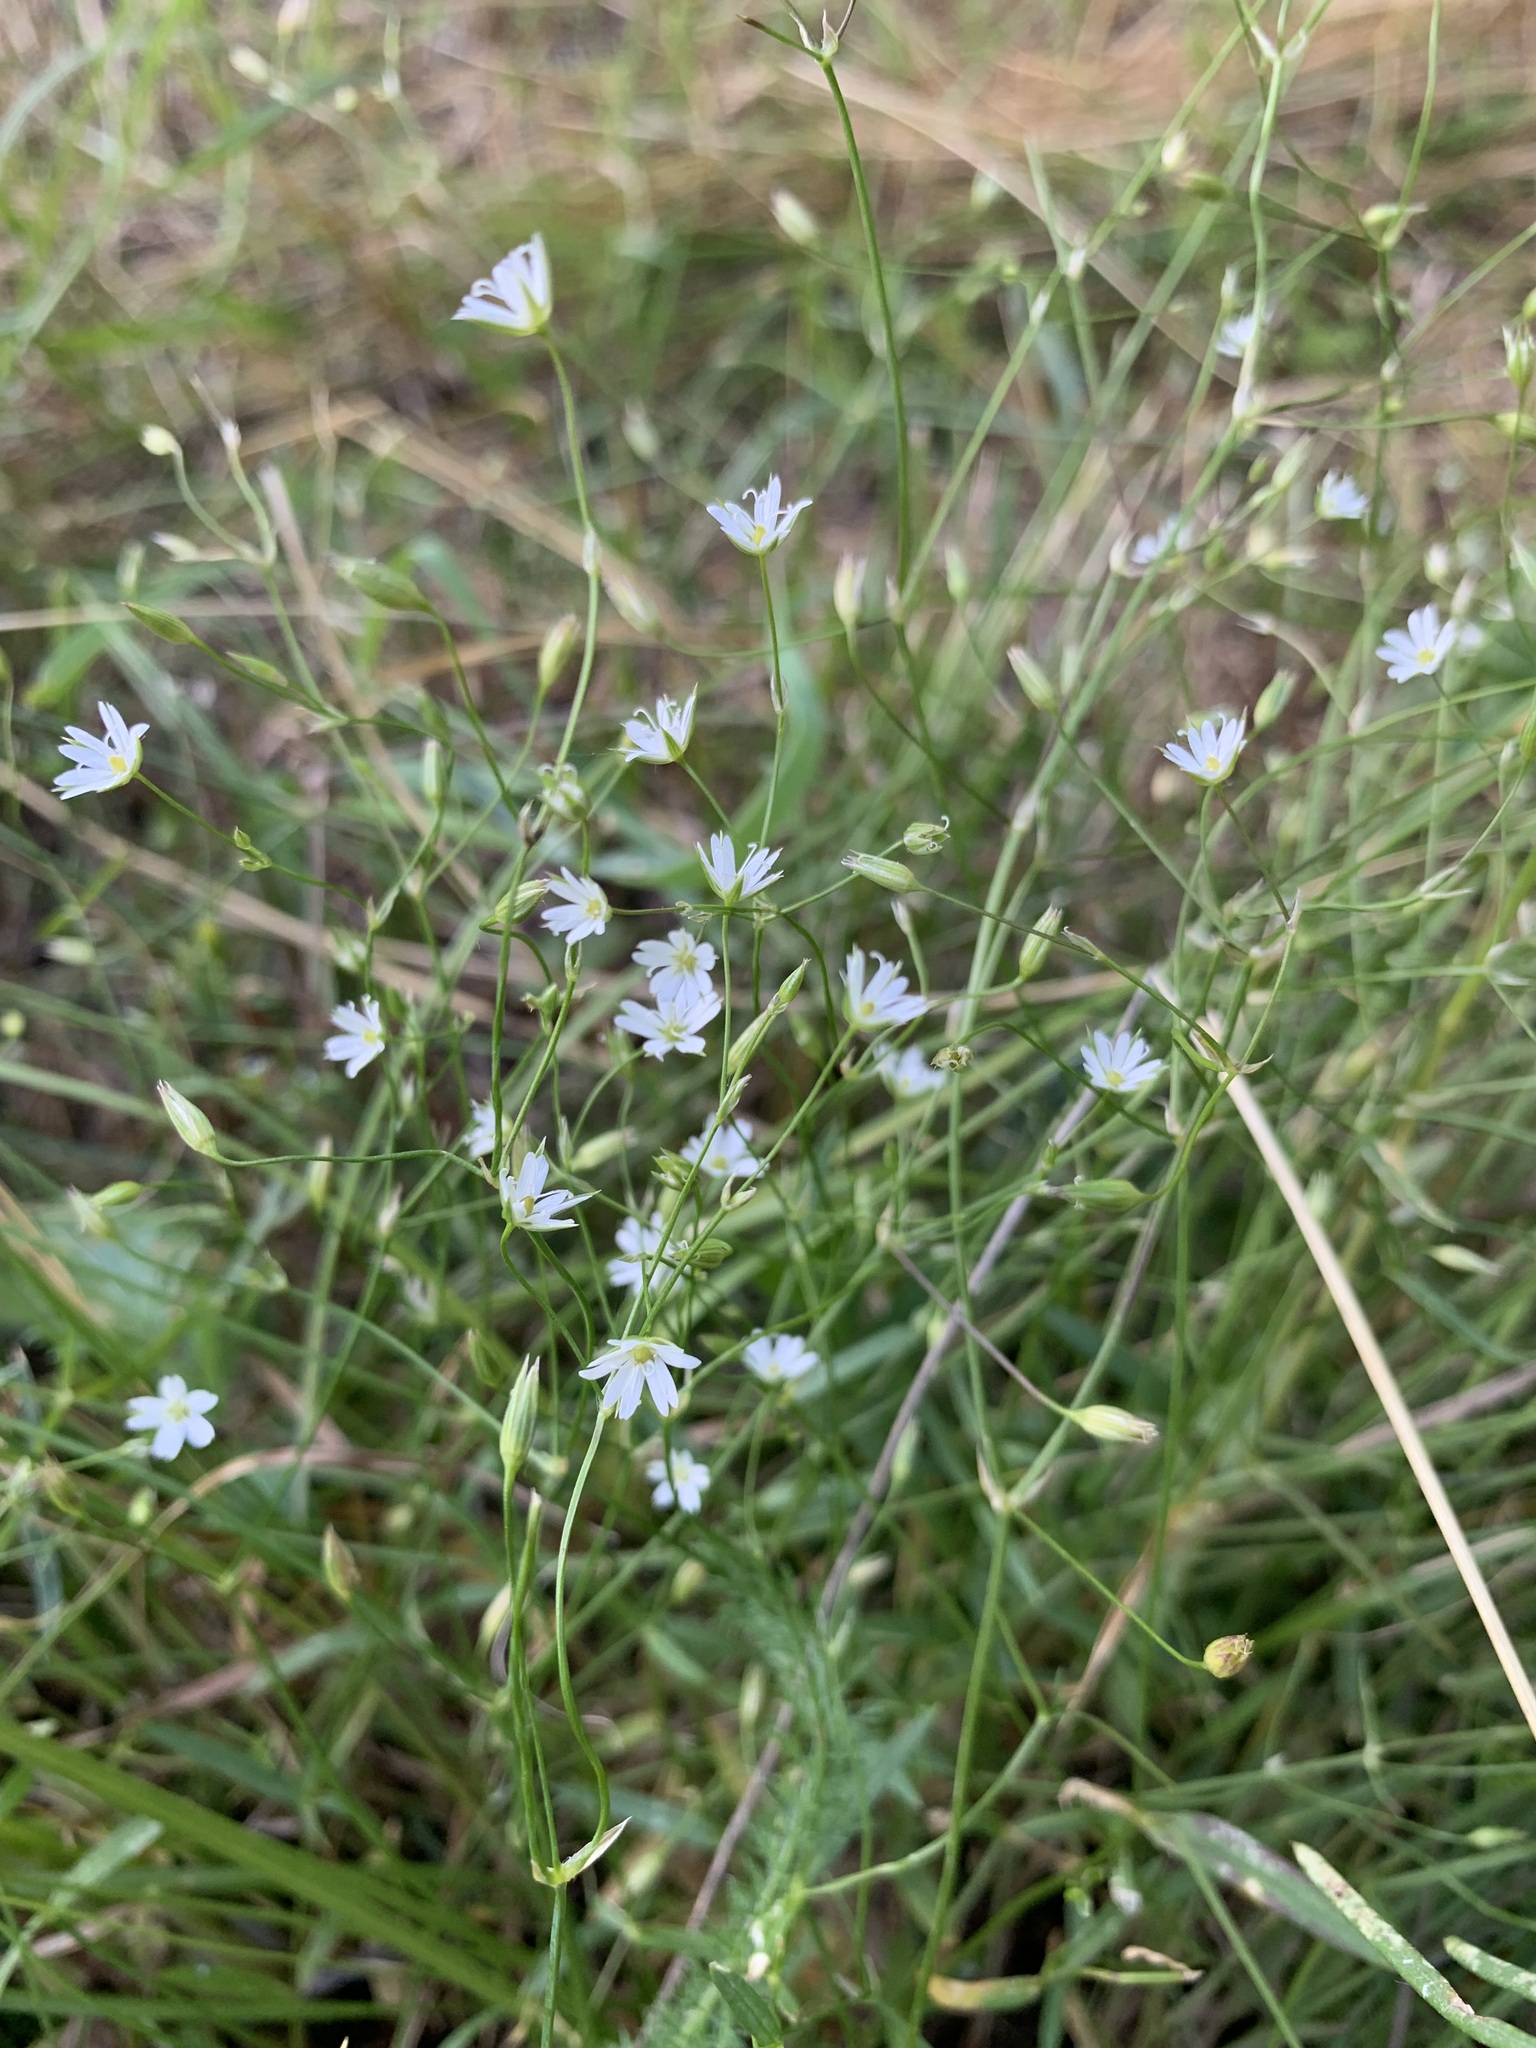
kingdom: Plantae
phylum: Tracheophyta
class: Magnoliopsida
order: Caryophyllales
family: Caryophyllaceae
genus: Stellaria
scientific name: Stellaria graminea
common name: Grass-like starwort
